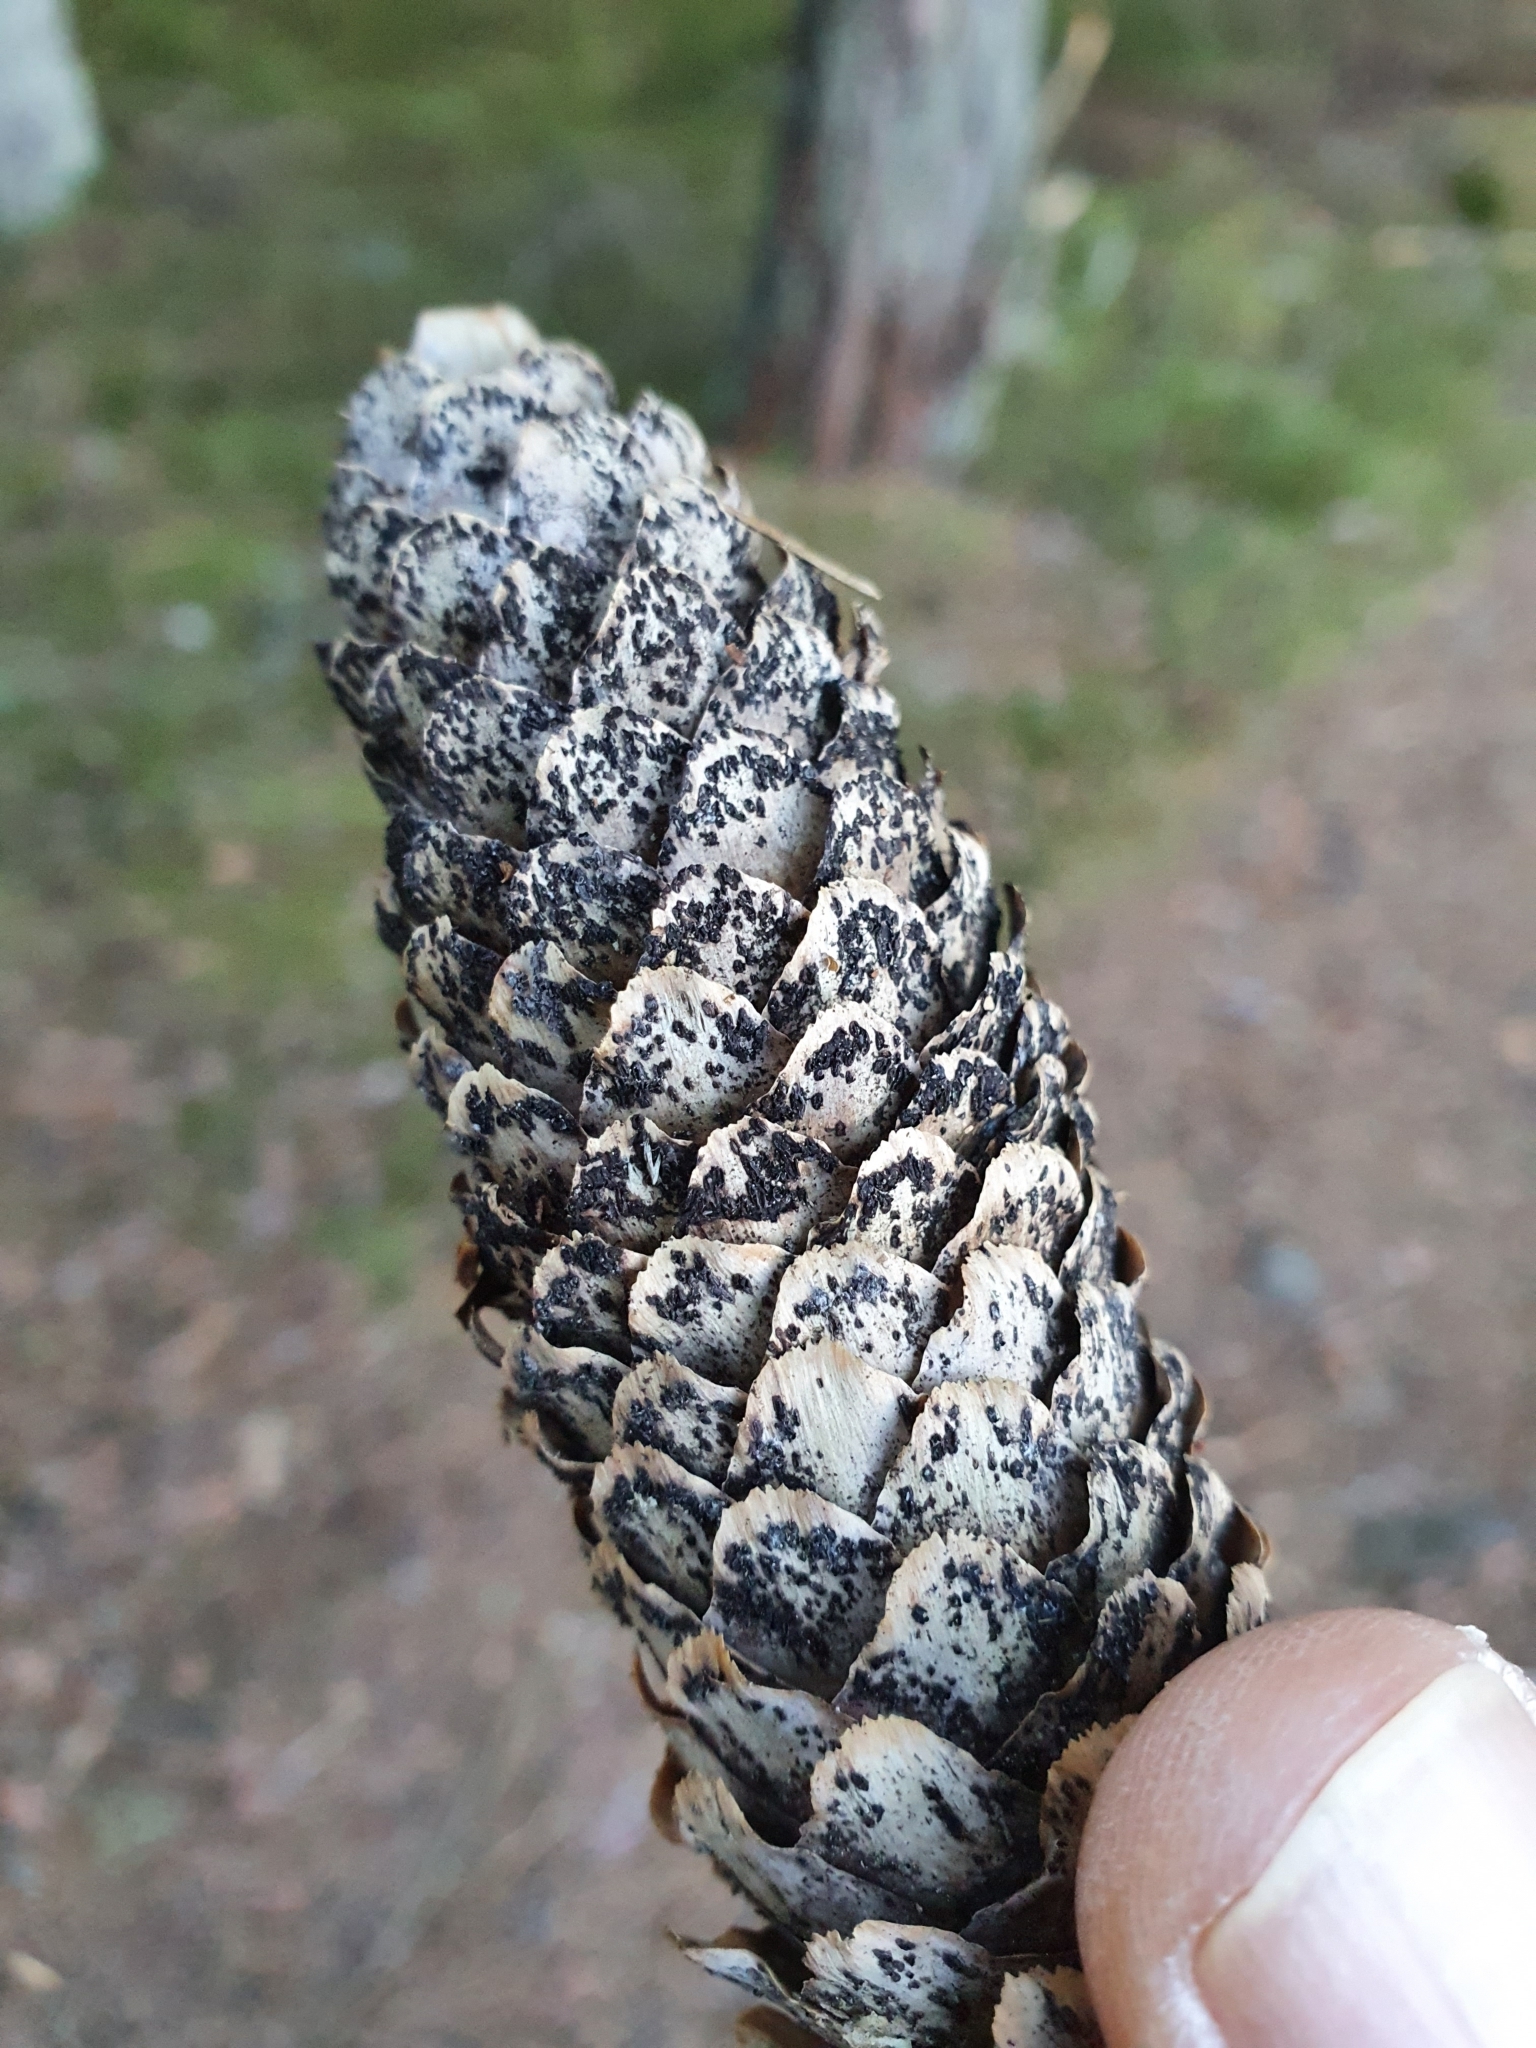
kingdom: Fungi
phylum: Ascomycota
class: Dothideomycetes
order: Pleosporales
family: Melanommataceae
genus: Phragmotrichum
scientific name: Phragmotrichum chailletii
